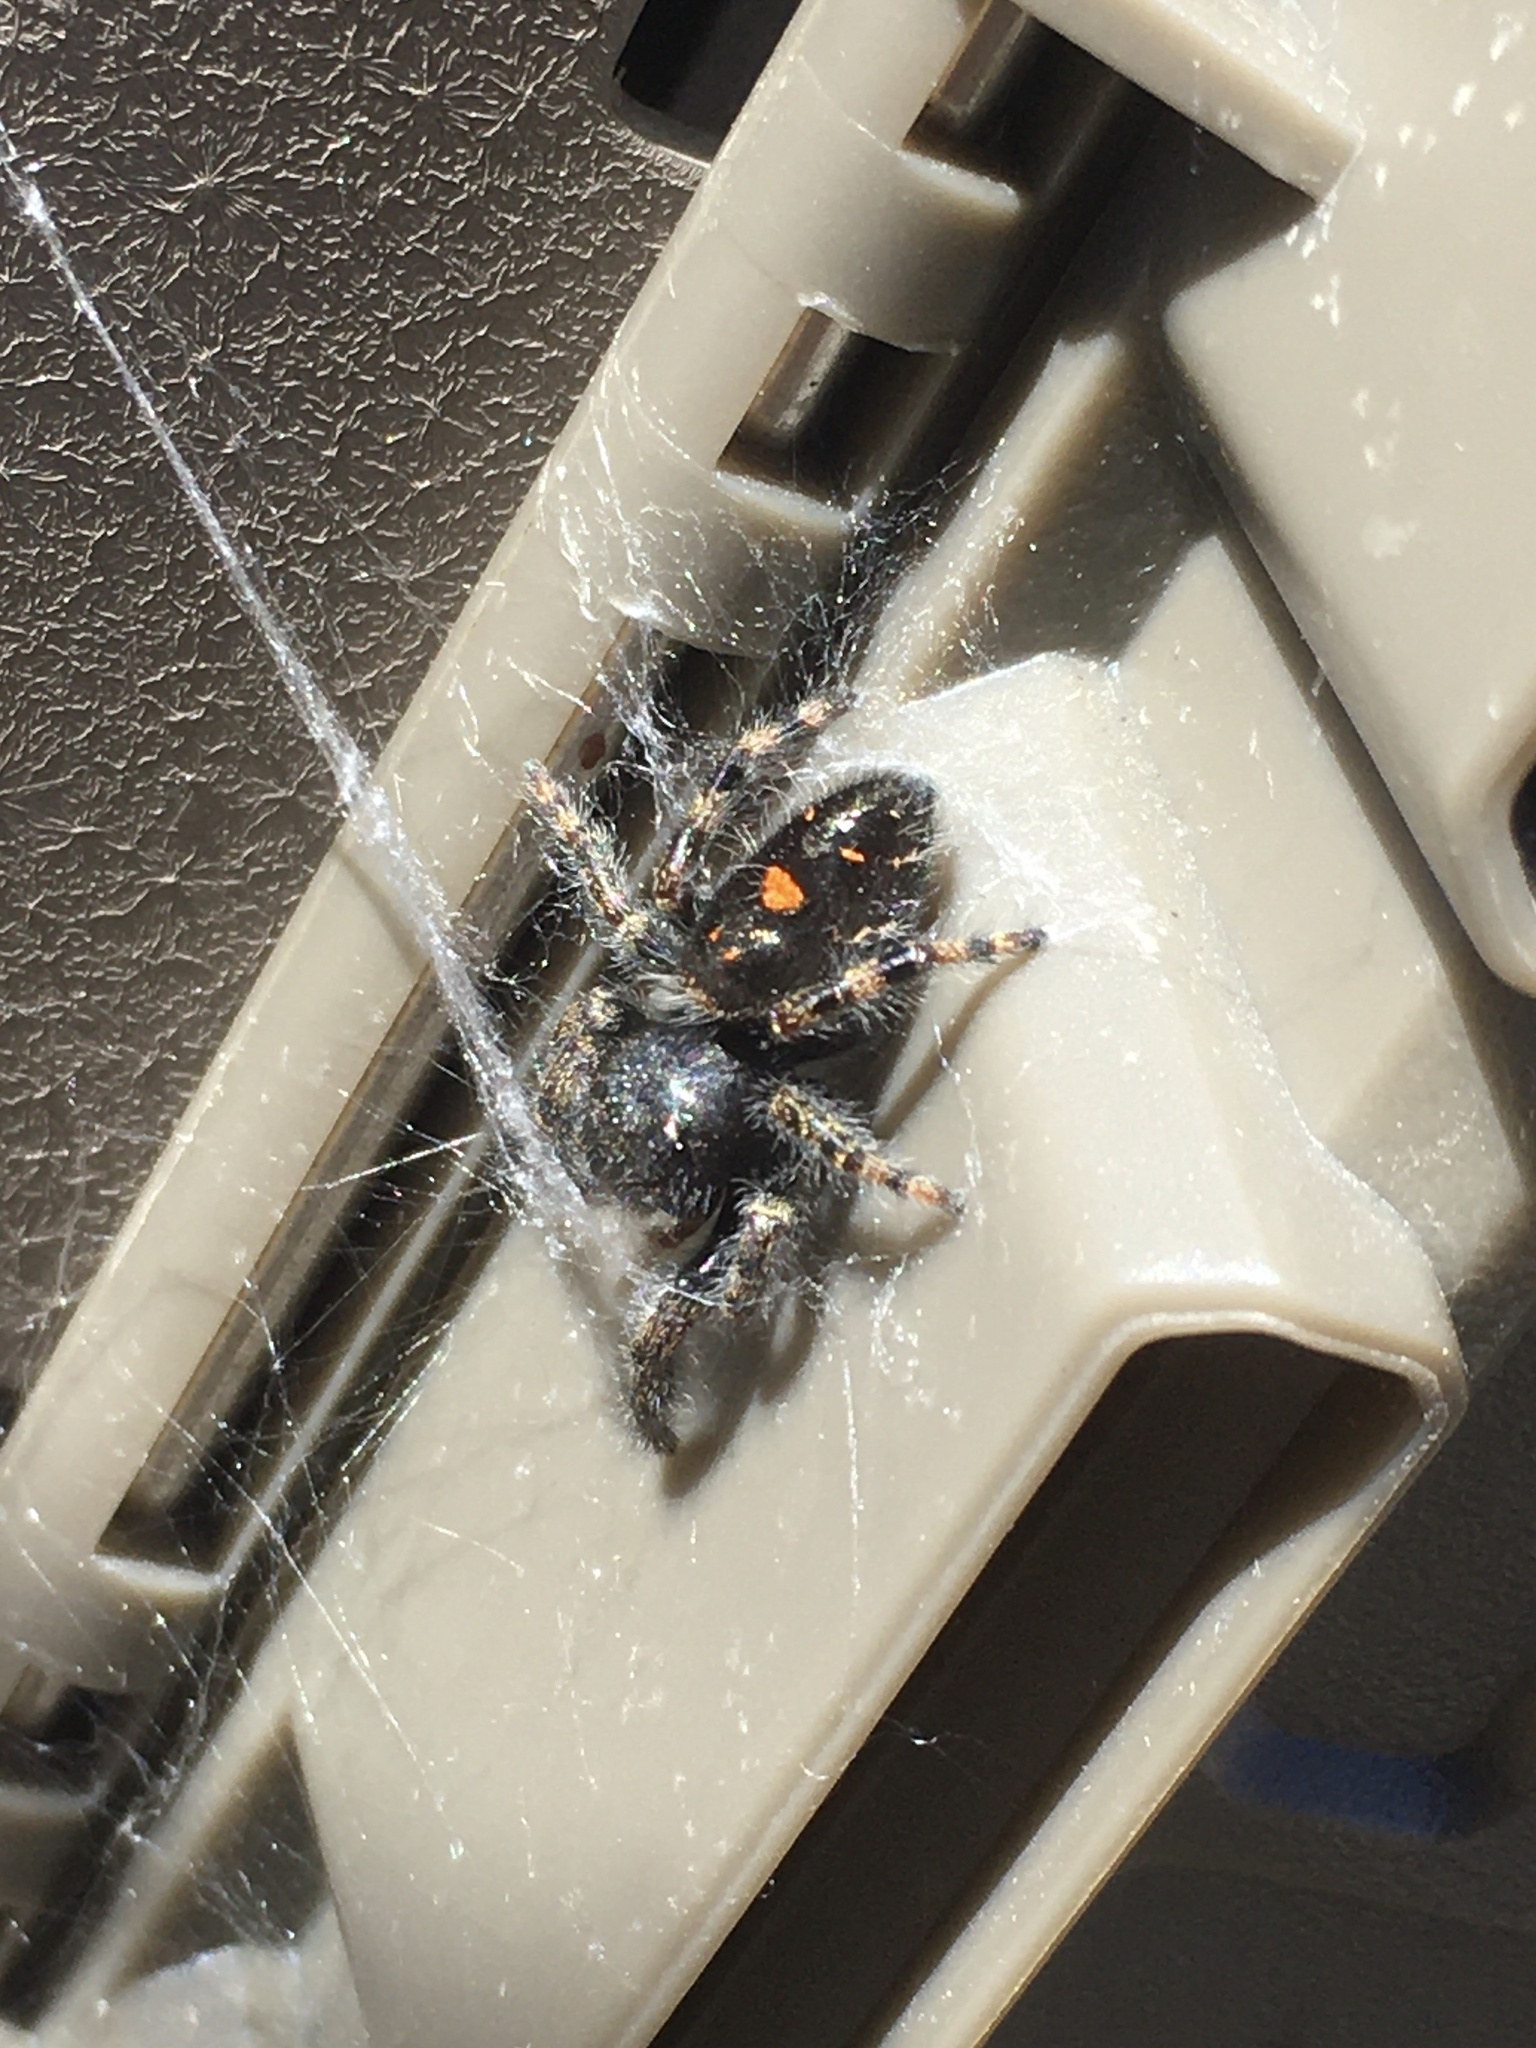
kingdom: Animalia
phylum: Arthropoda
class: Arachnida
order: Araneae
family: Salticidae
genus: Phidippus
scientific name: Phidippus audax
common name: Bold jumper
